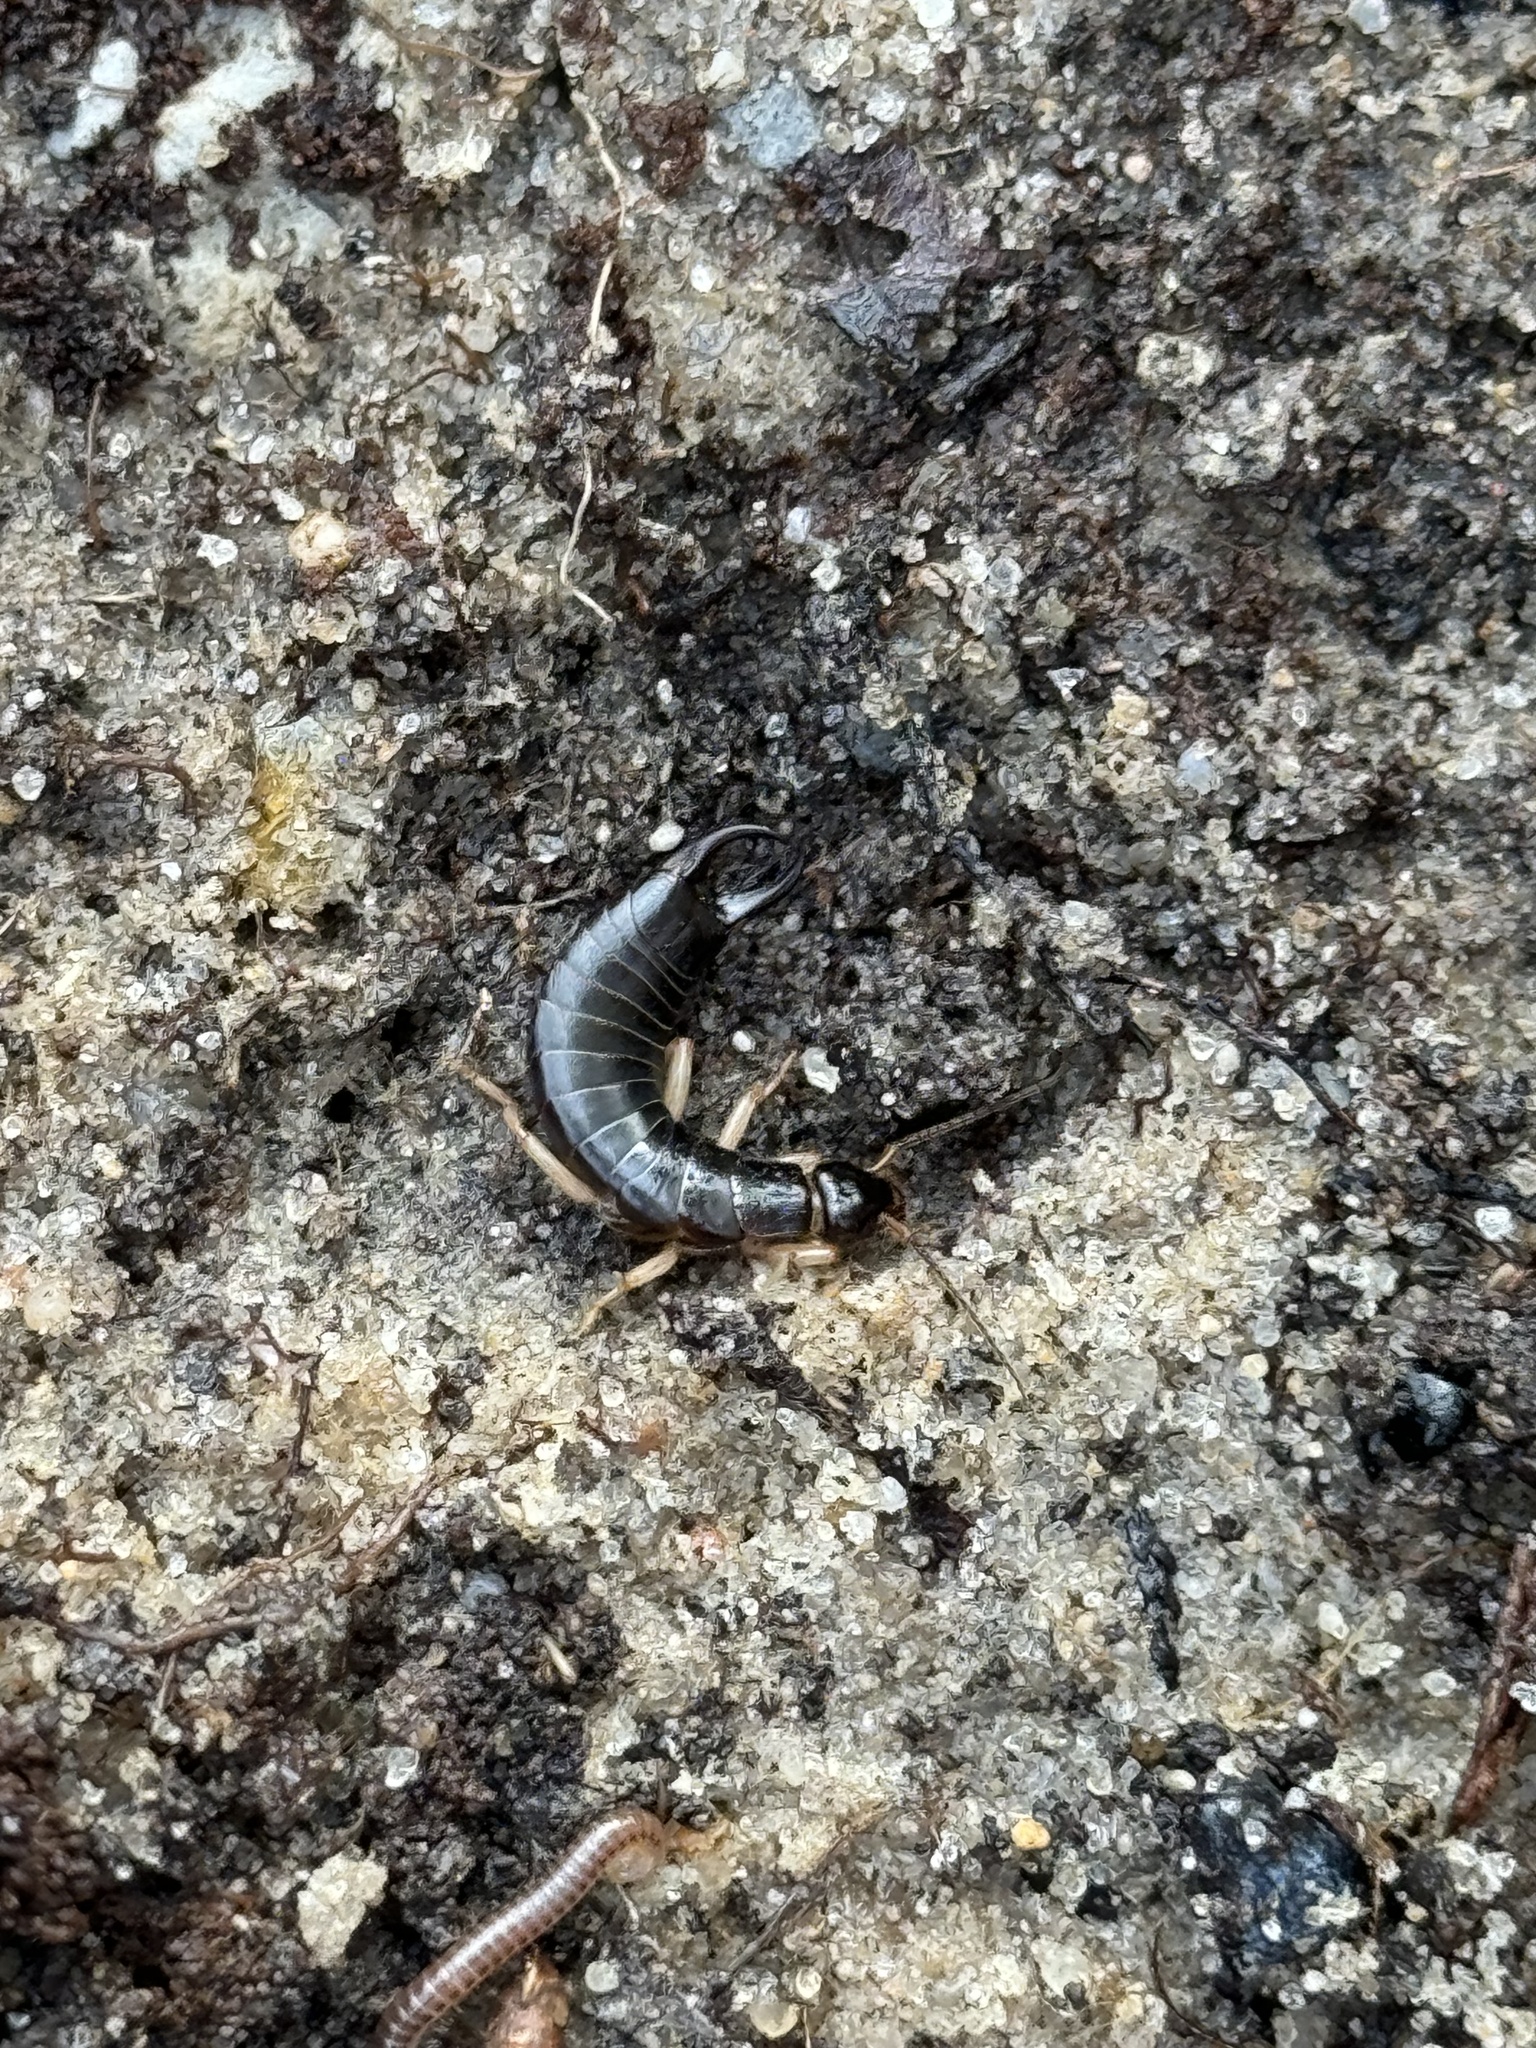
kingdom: Animalia
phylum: Arthropoda
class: Insecta
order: Dermaptera
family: Anisolabididae
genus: Anisolabis
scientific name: Anisolabis maritima
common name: Maritime earwig
